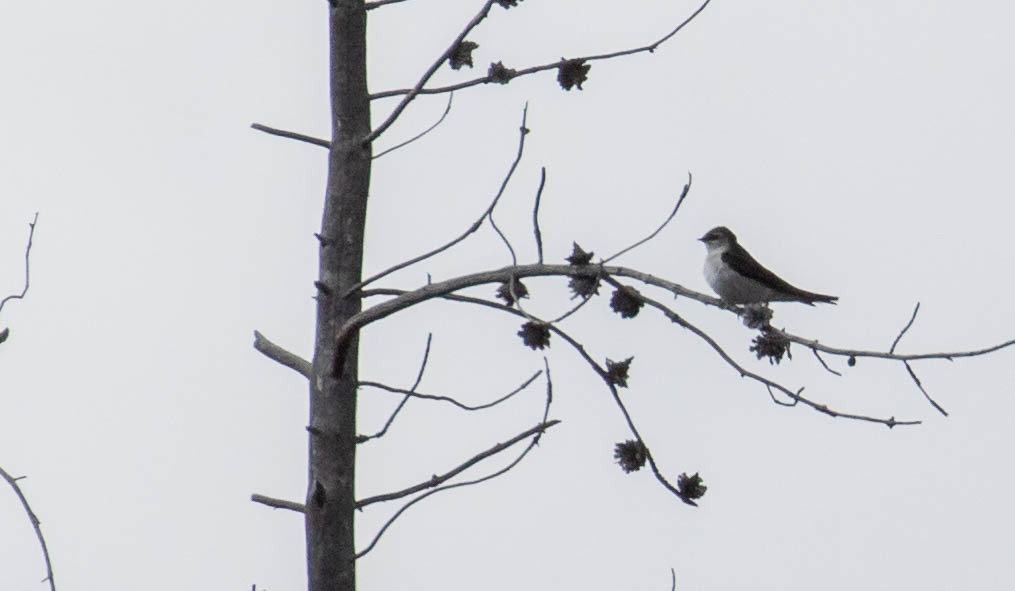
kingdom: Animalia
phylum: Chordata
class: Aves
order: Passeriformes
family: Hirundinidae
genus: Tachycineta
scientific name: Tachycineta thalassina
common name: Violet-green swallow
